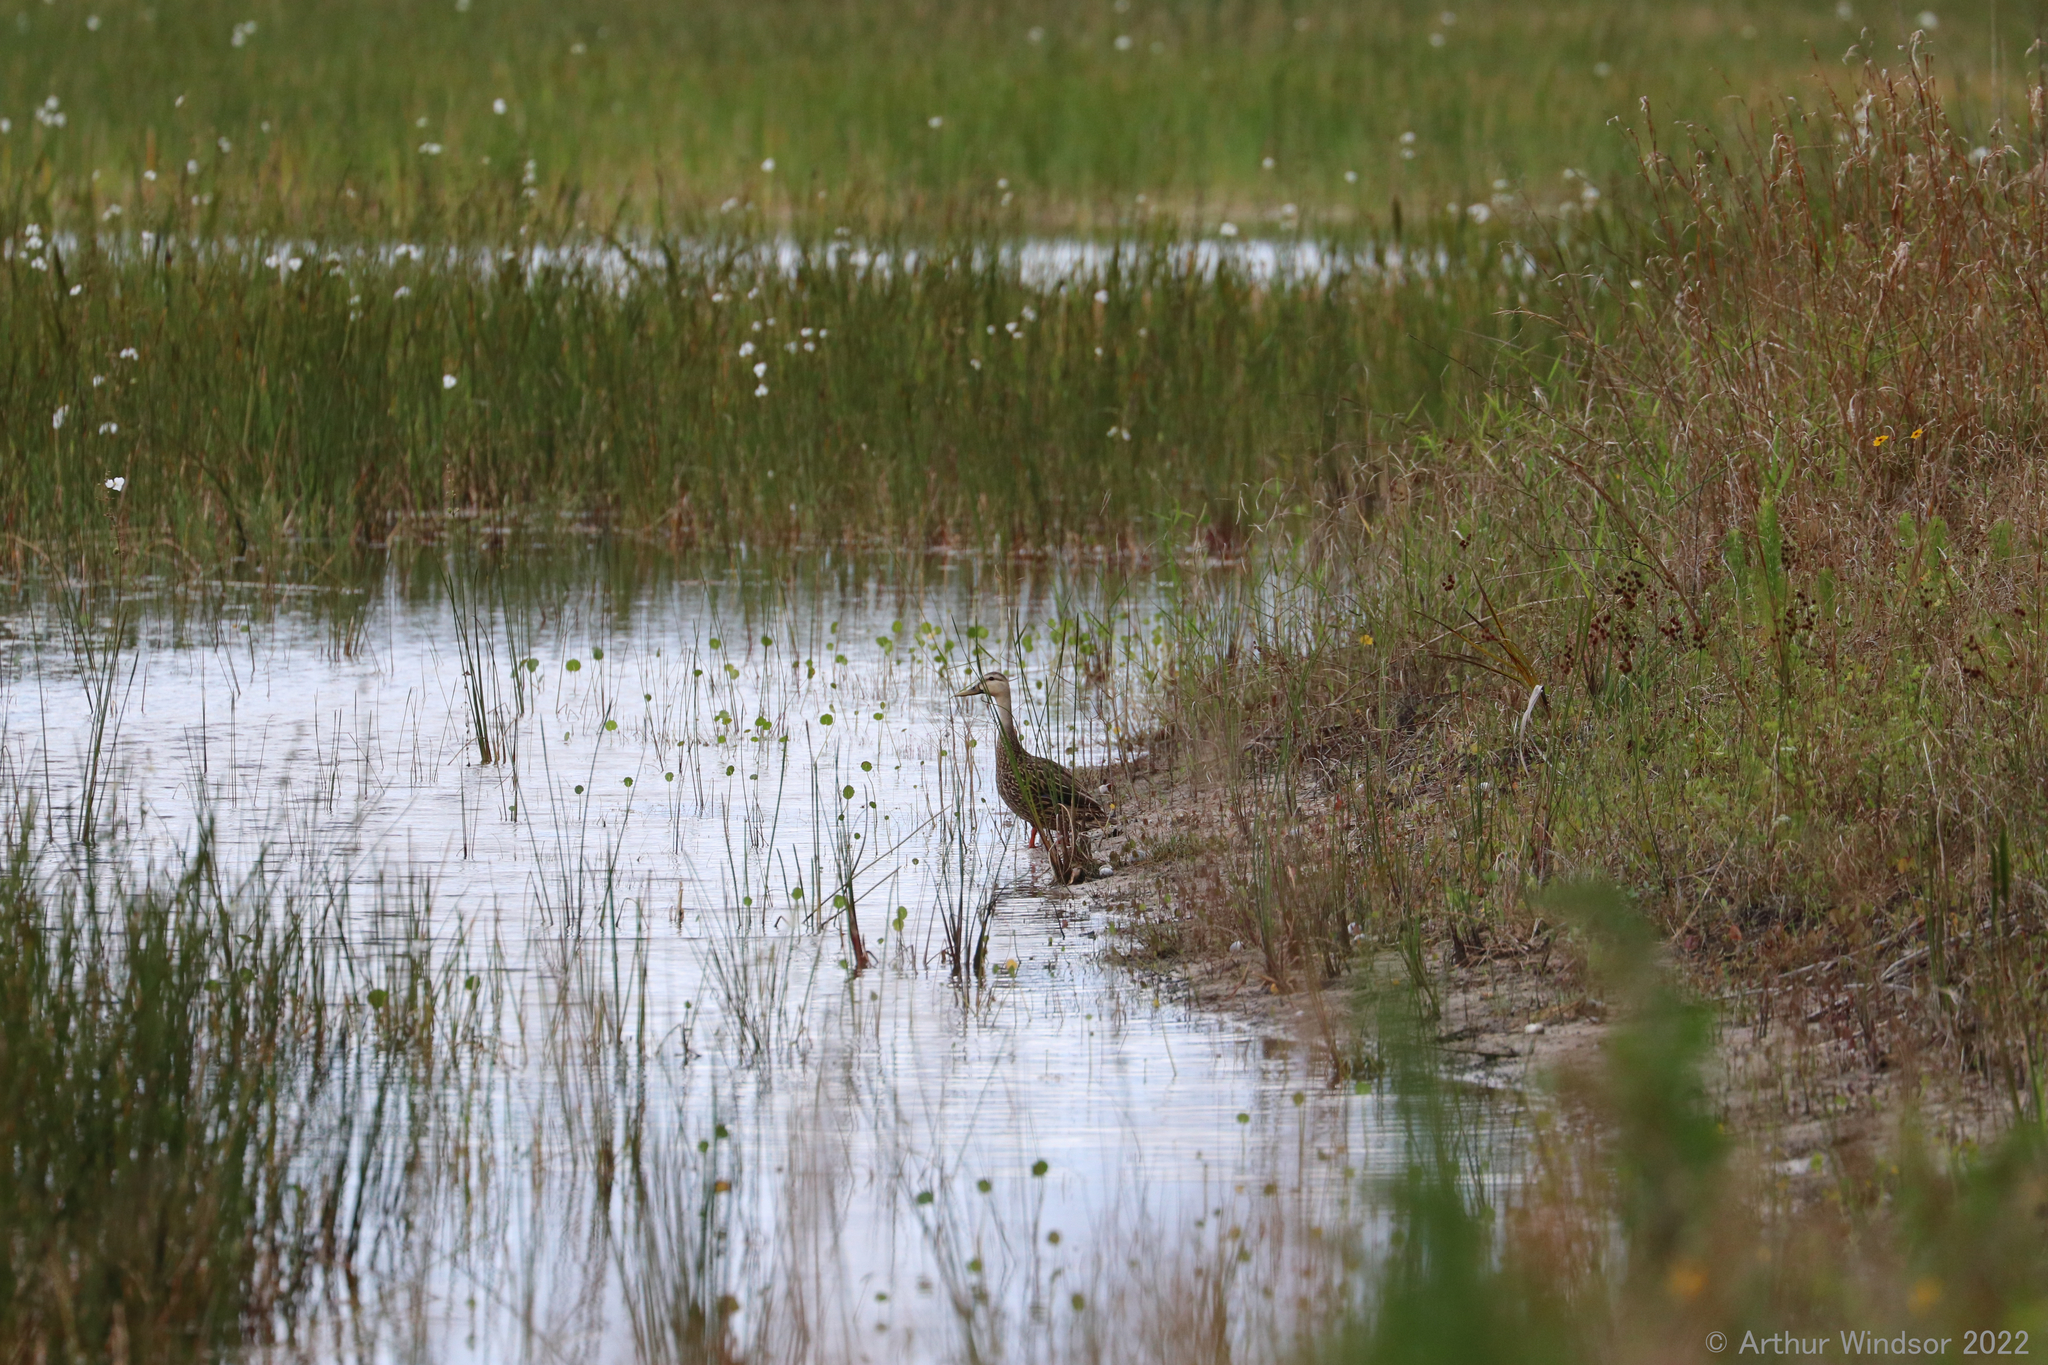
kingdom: Animalia
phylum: Chordata
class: Aves
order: Anseriformes
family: Anatidae
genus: Anas
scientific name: Anas fulvigula
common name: Mottled duck
